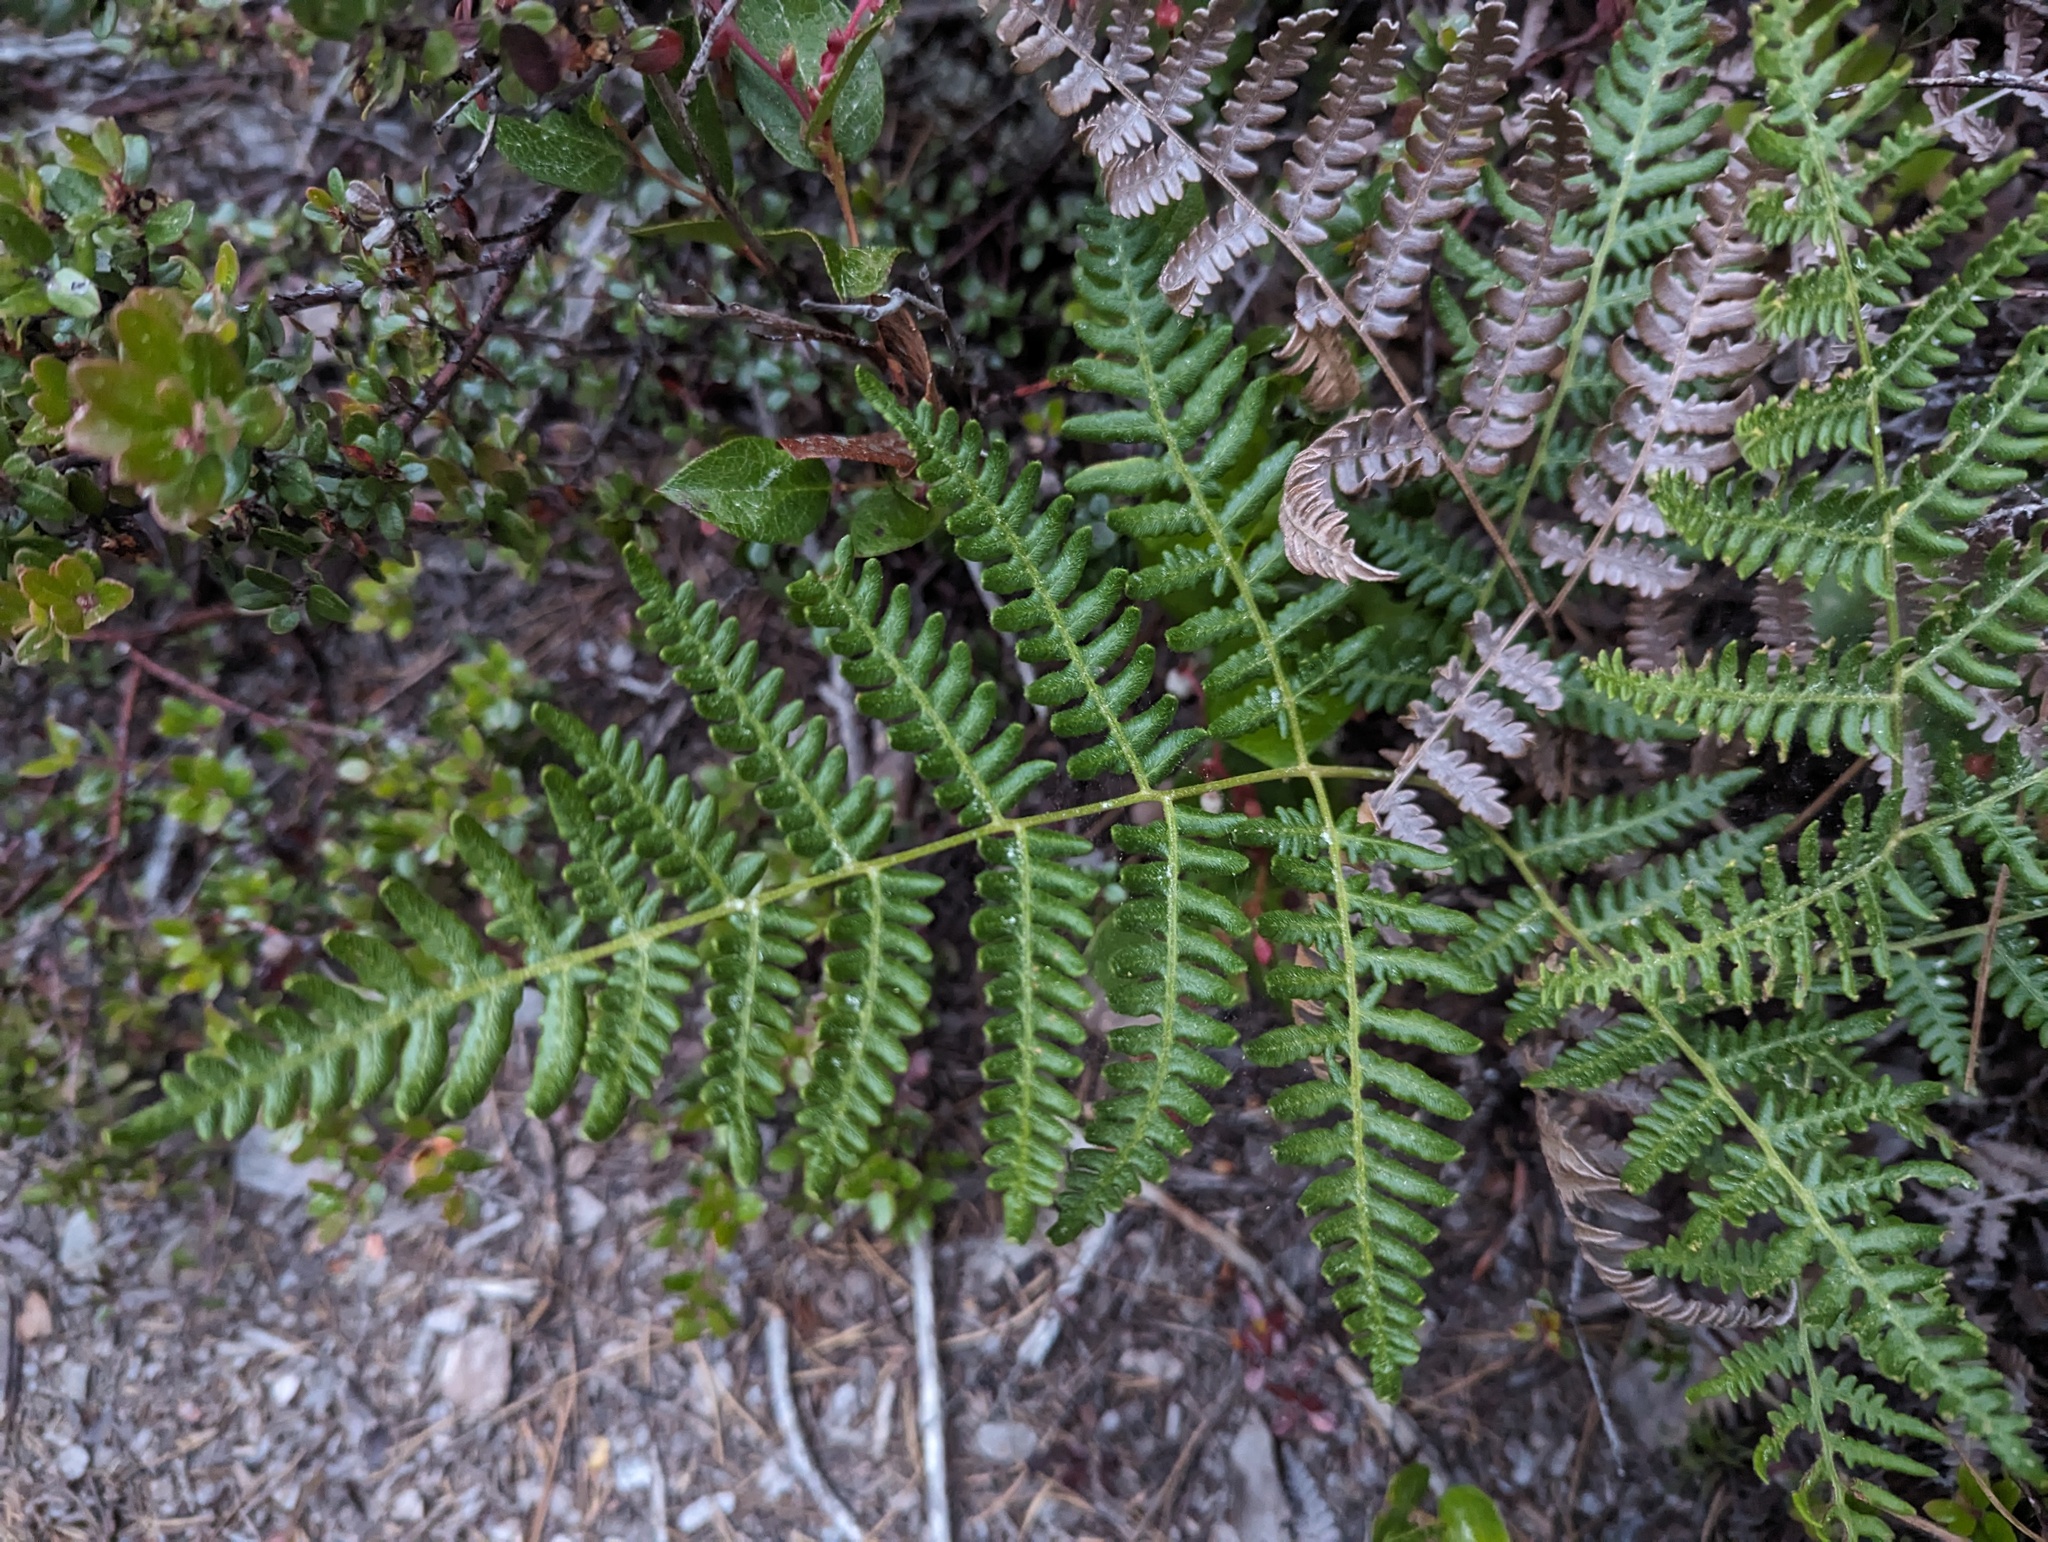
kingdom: Plantae
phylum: Tracheophyta
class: Polypodiopsida
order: Polypodiales
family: Dennstaedtiaceae
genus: Pteridium
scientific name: Pteridium aquilinum
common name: Bracken
